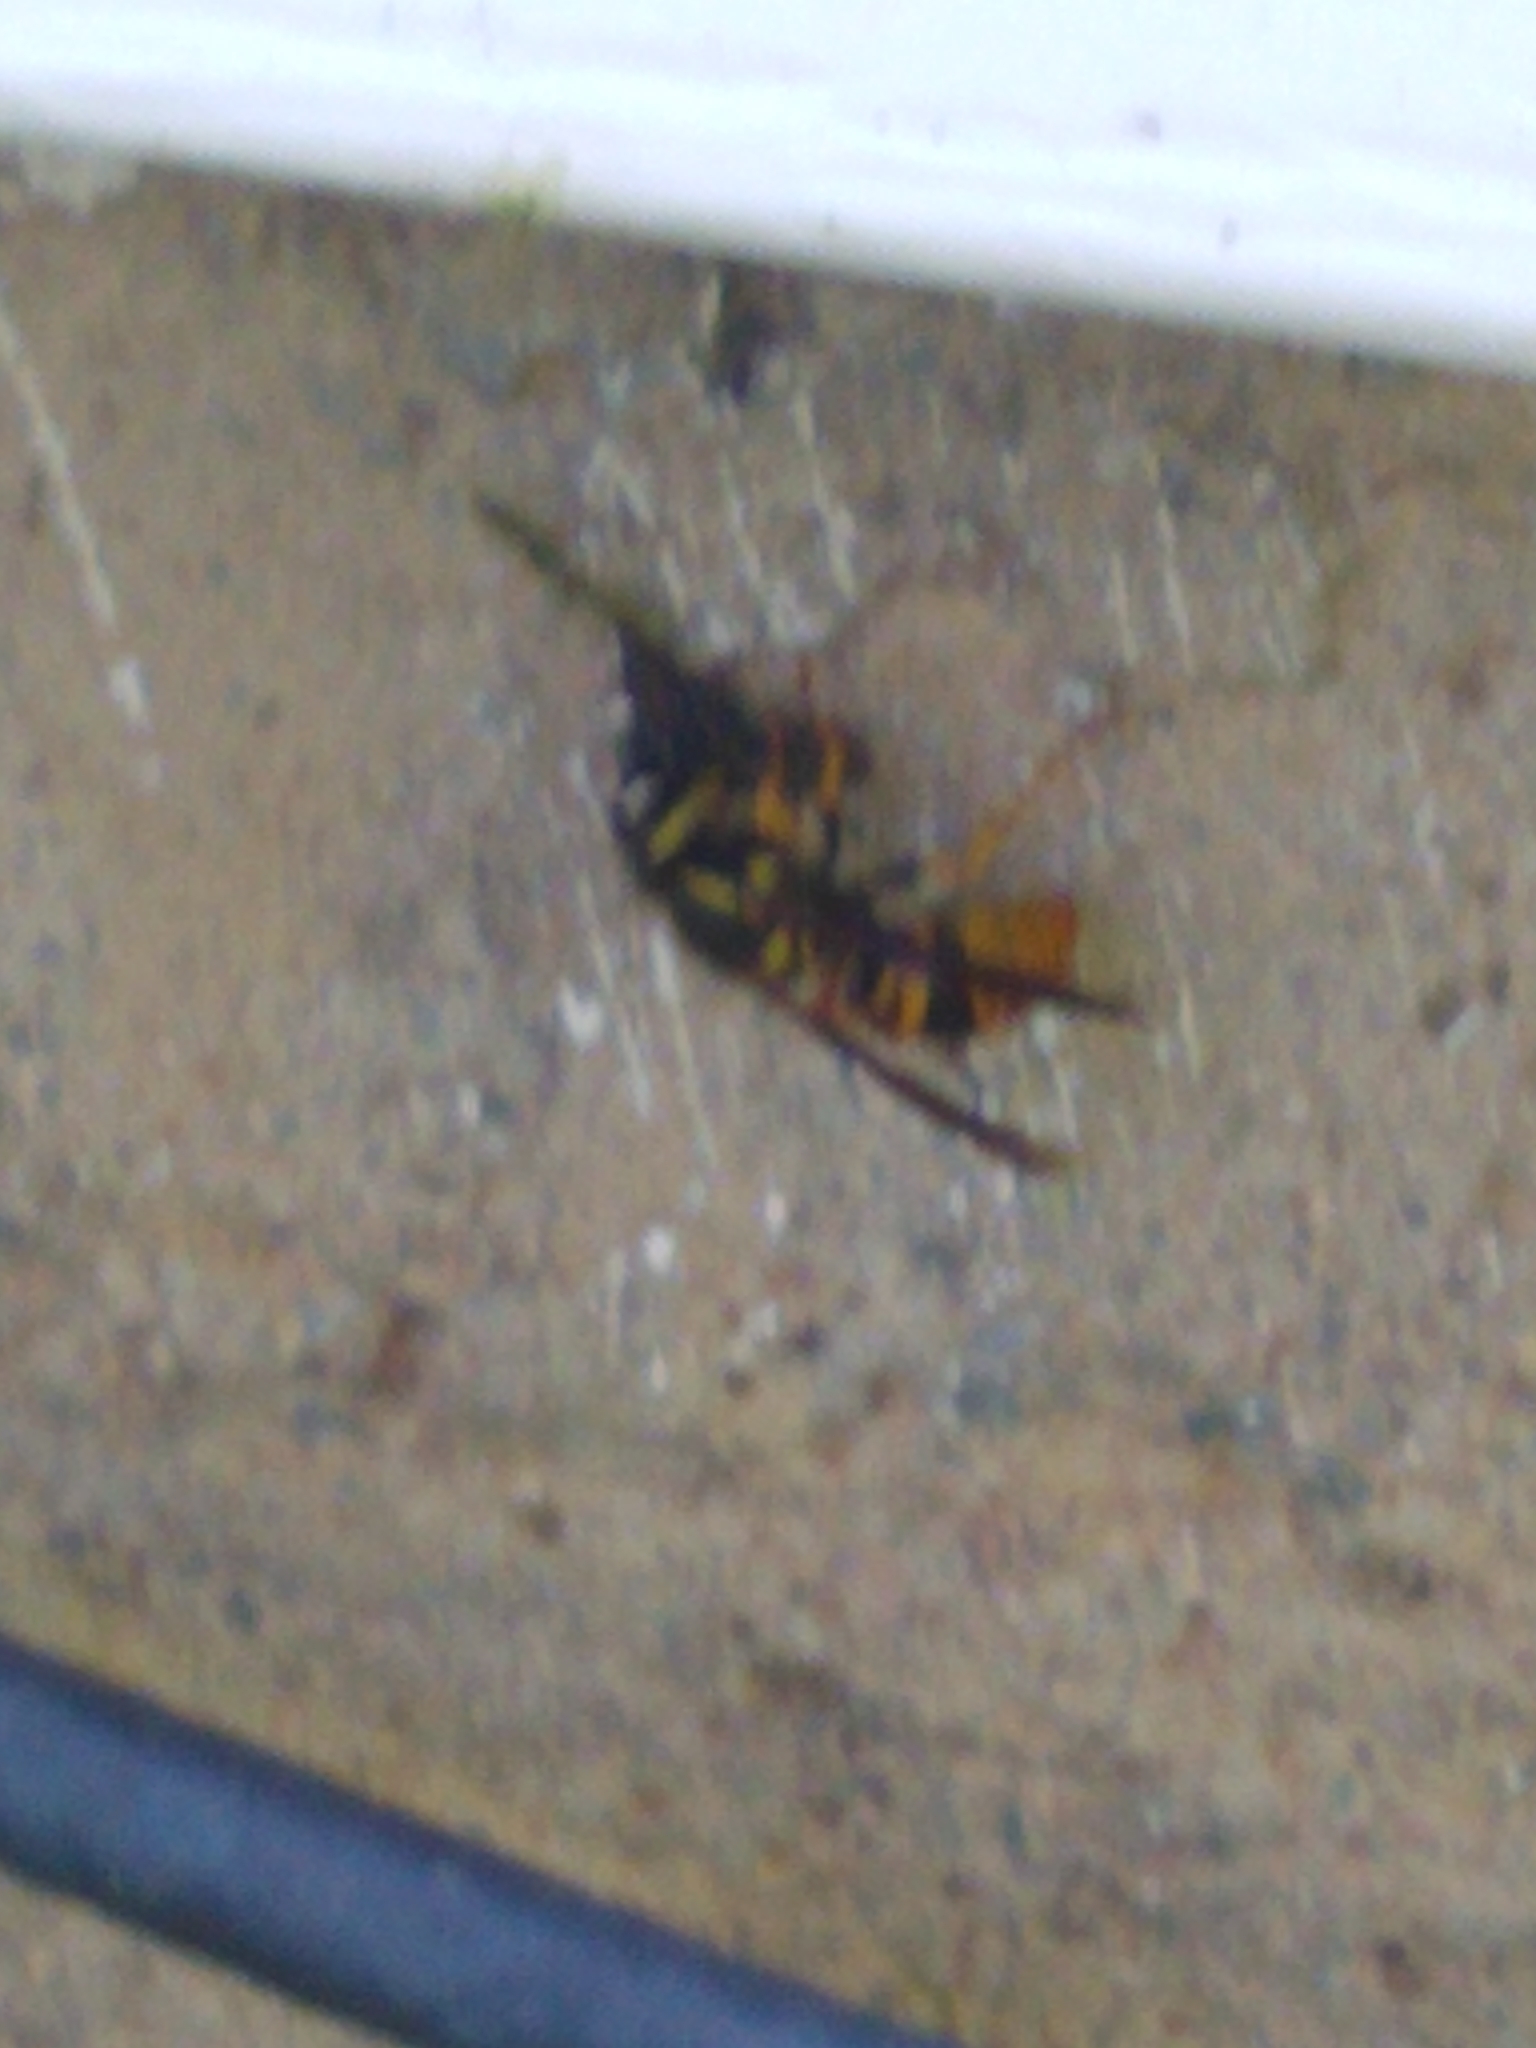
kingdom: Animalia
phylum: Arthropoda
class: Insecta
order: Hymenoptera
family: Vespidae
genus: Vespula
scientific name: Vespula maculifrons
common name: Eastern yellowjacket
